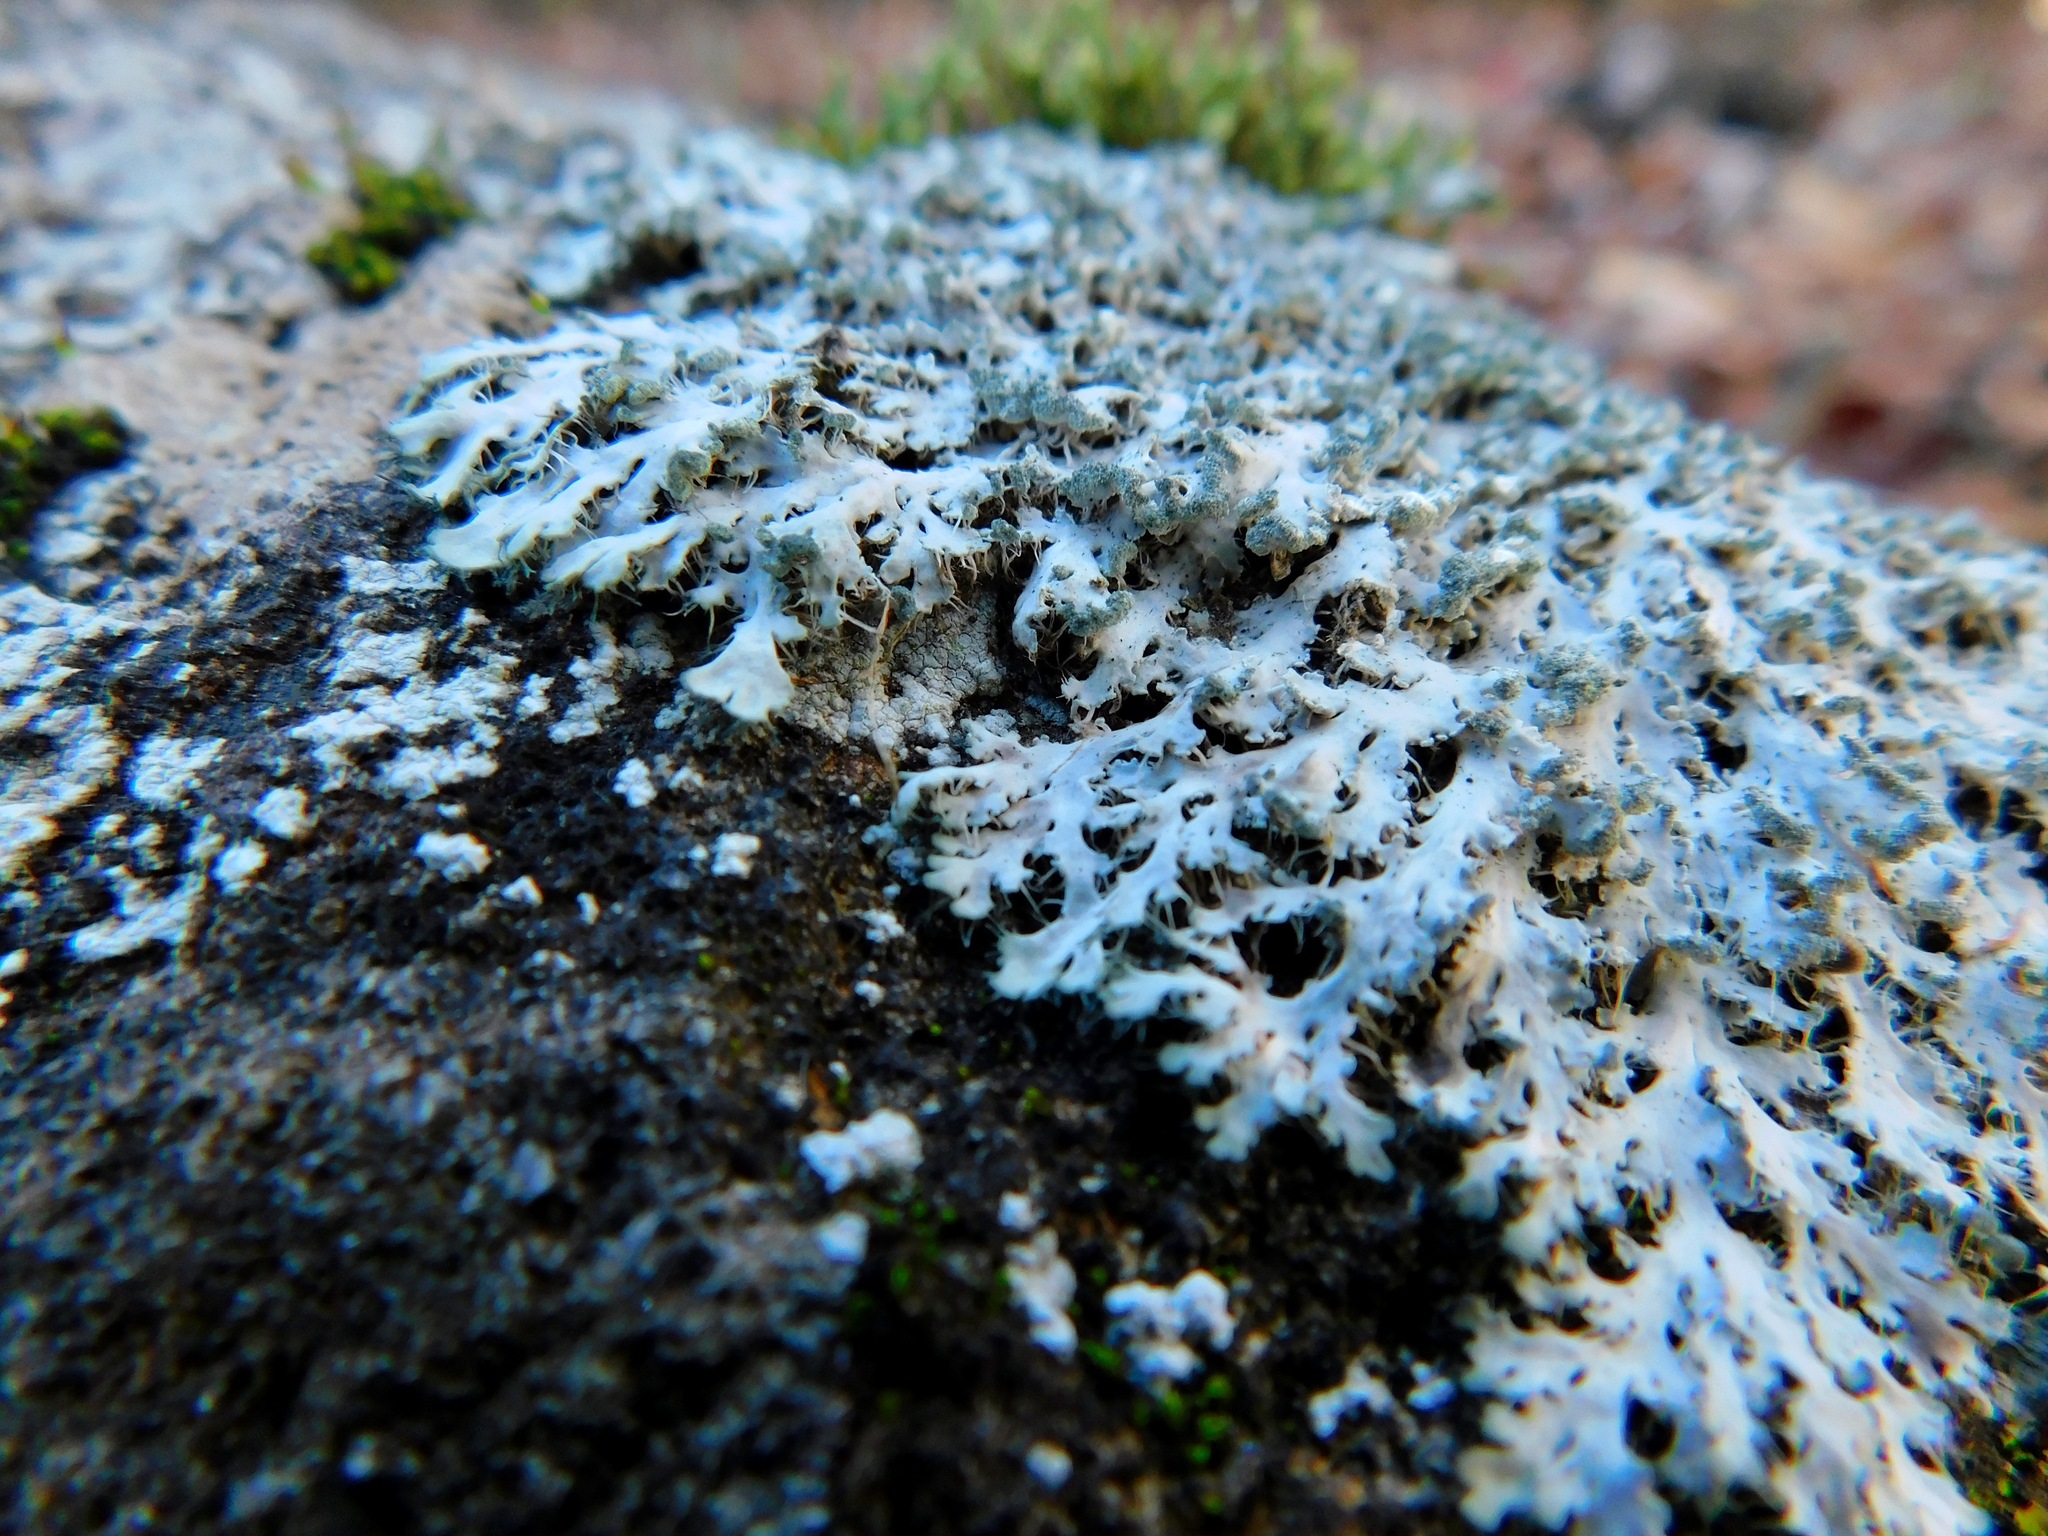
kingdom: Fungi
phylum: Ascomycota
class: Lecanoromycetes
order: Caliciales
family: Physciaceae
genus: Heterodermia
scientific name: Heterodermia speciosa
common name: Powdered fringe lichen
